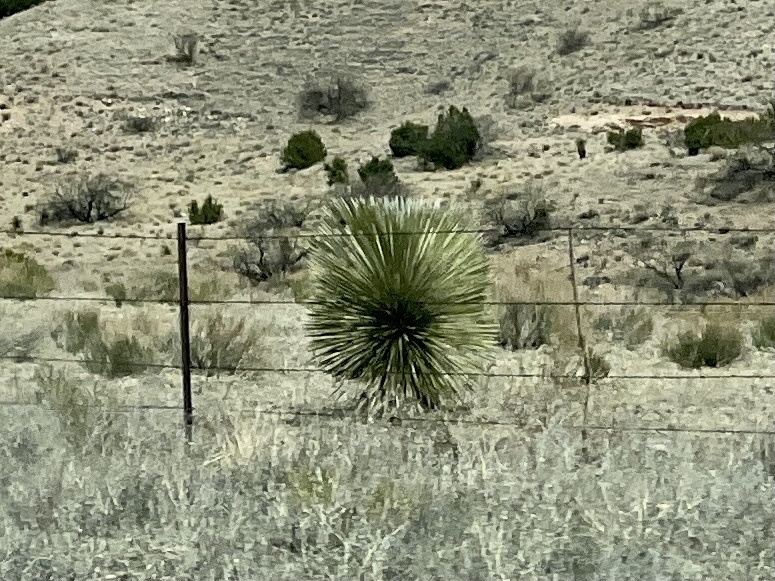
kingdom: Plantae
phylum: Tracheophyta
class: Liliopsida
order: Asparagales
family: Asparagaceae
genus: Yucca
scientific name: Yucca elata
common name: Palmella
